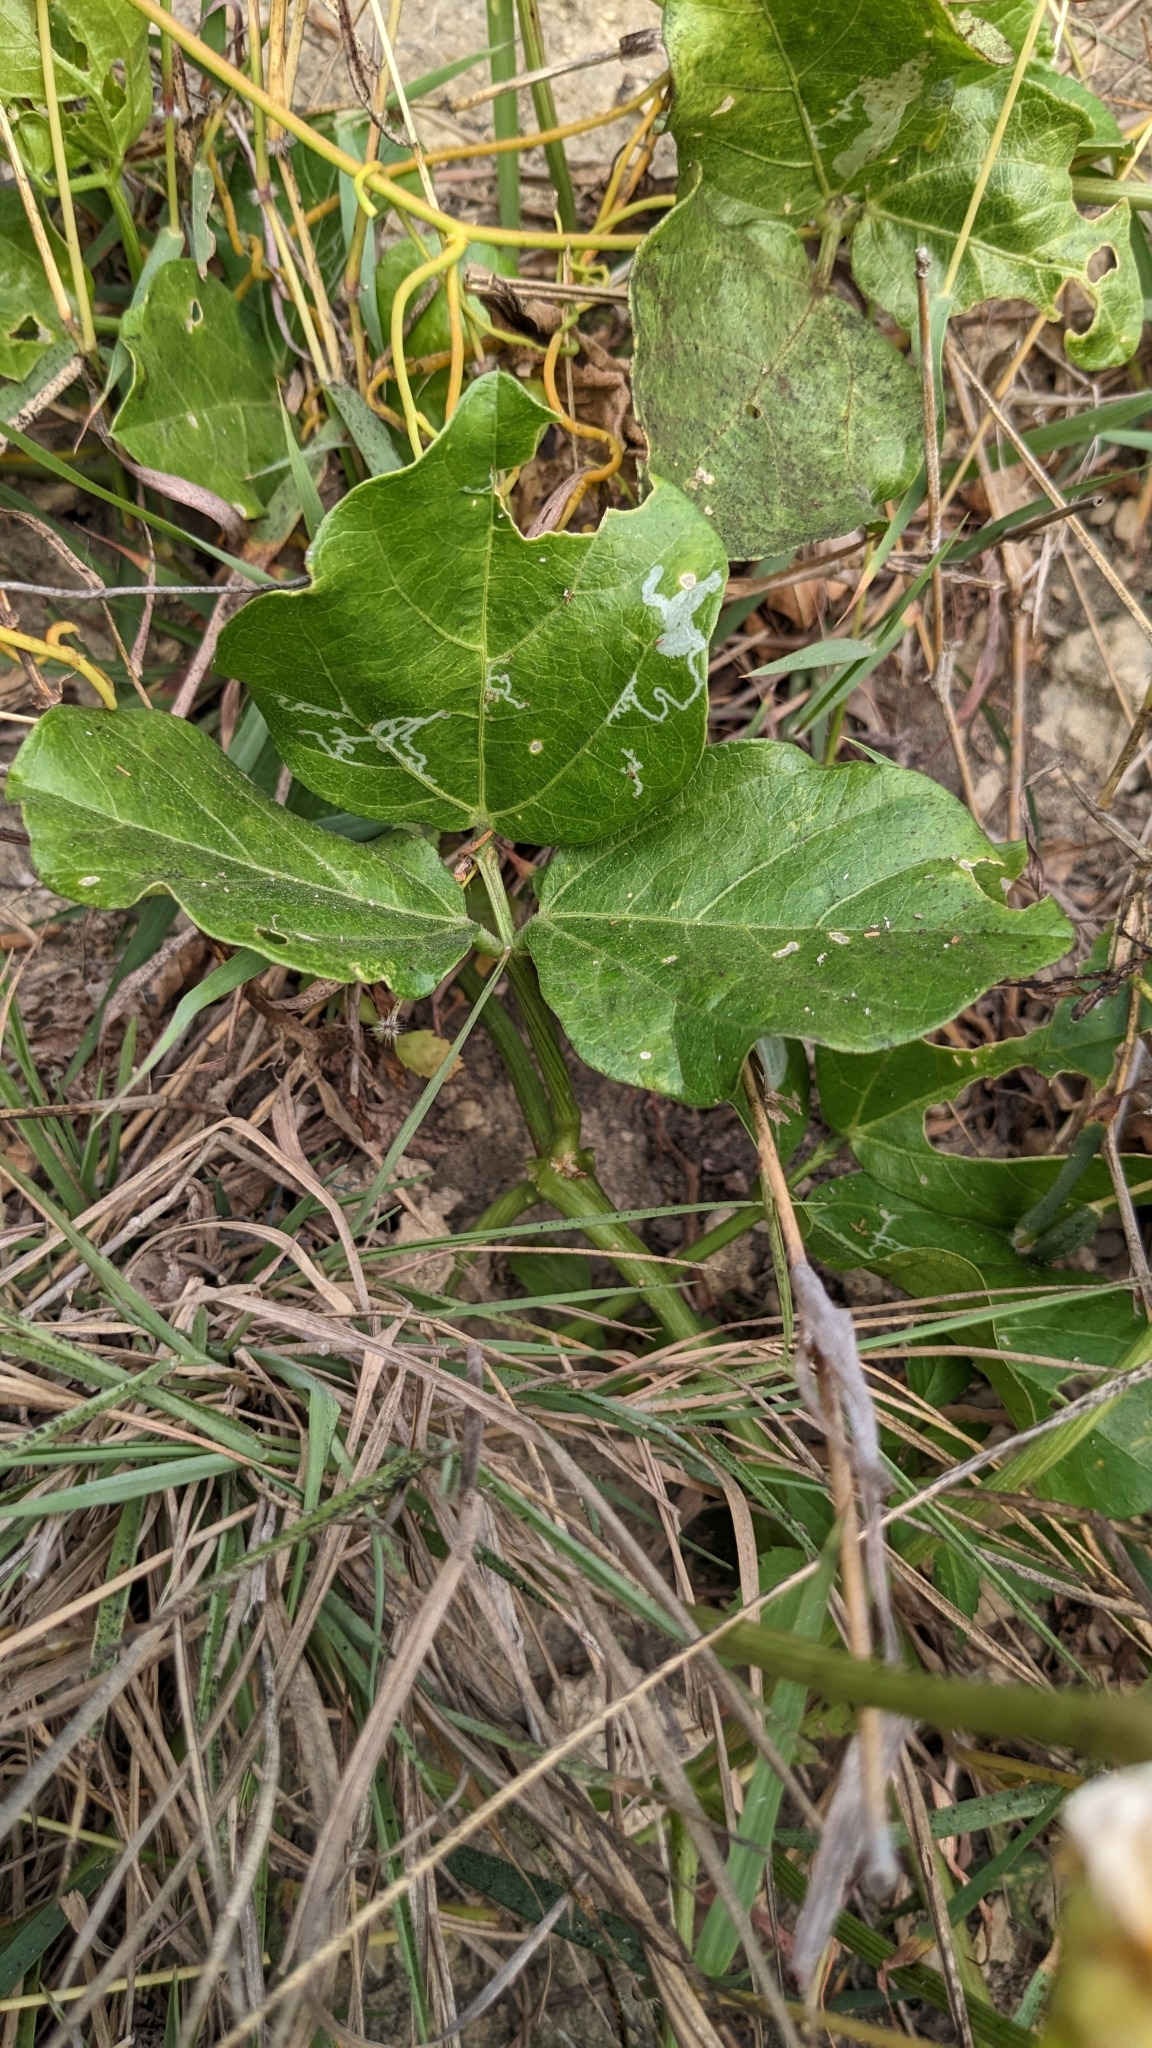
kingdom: Plantae
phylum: Tracheophyta
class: Magnoliopsida
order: Fabales
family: Fabaceae
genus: Vigna
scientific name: Vigna marina
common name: Dune-bean
